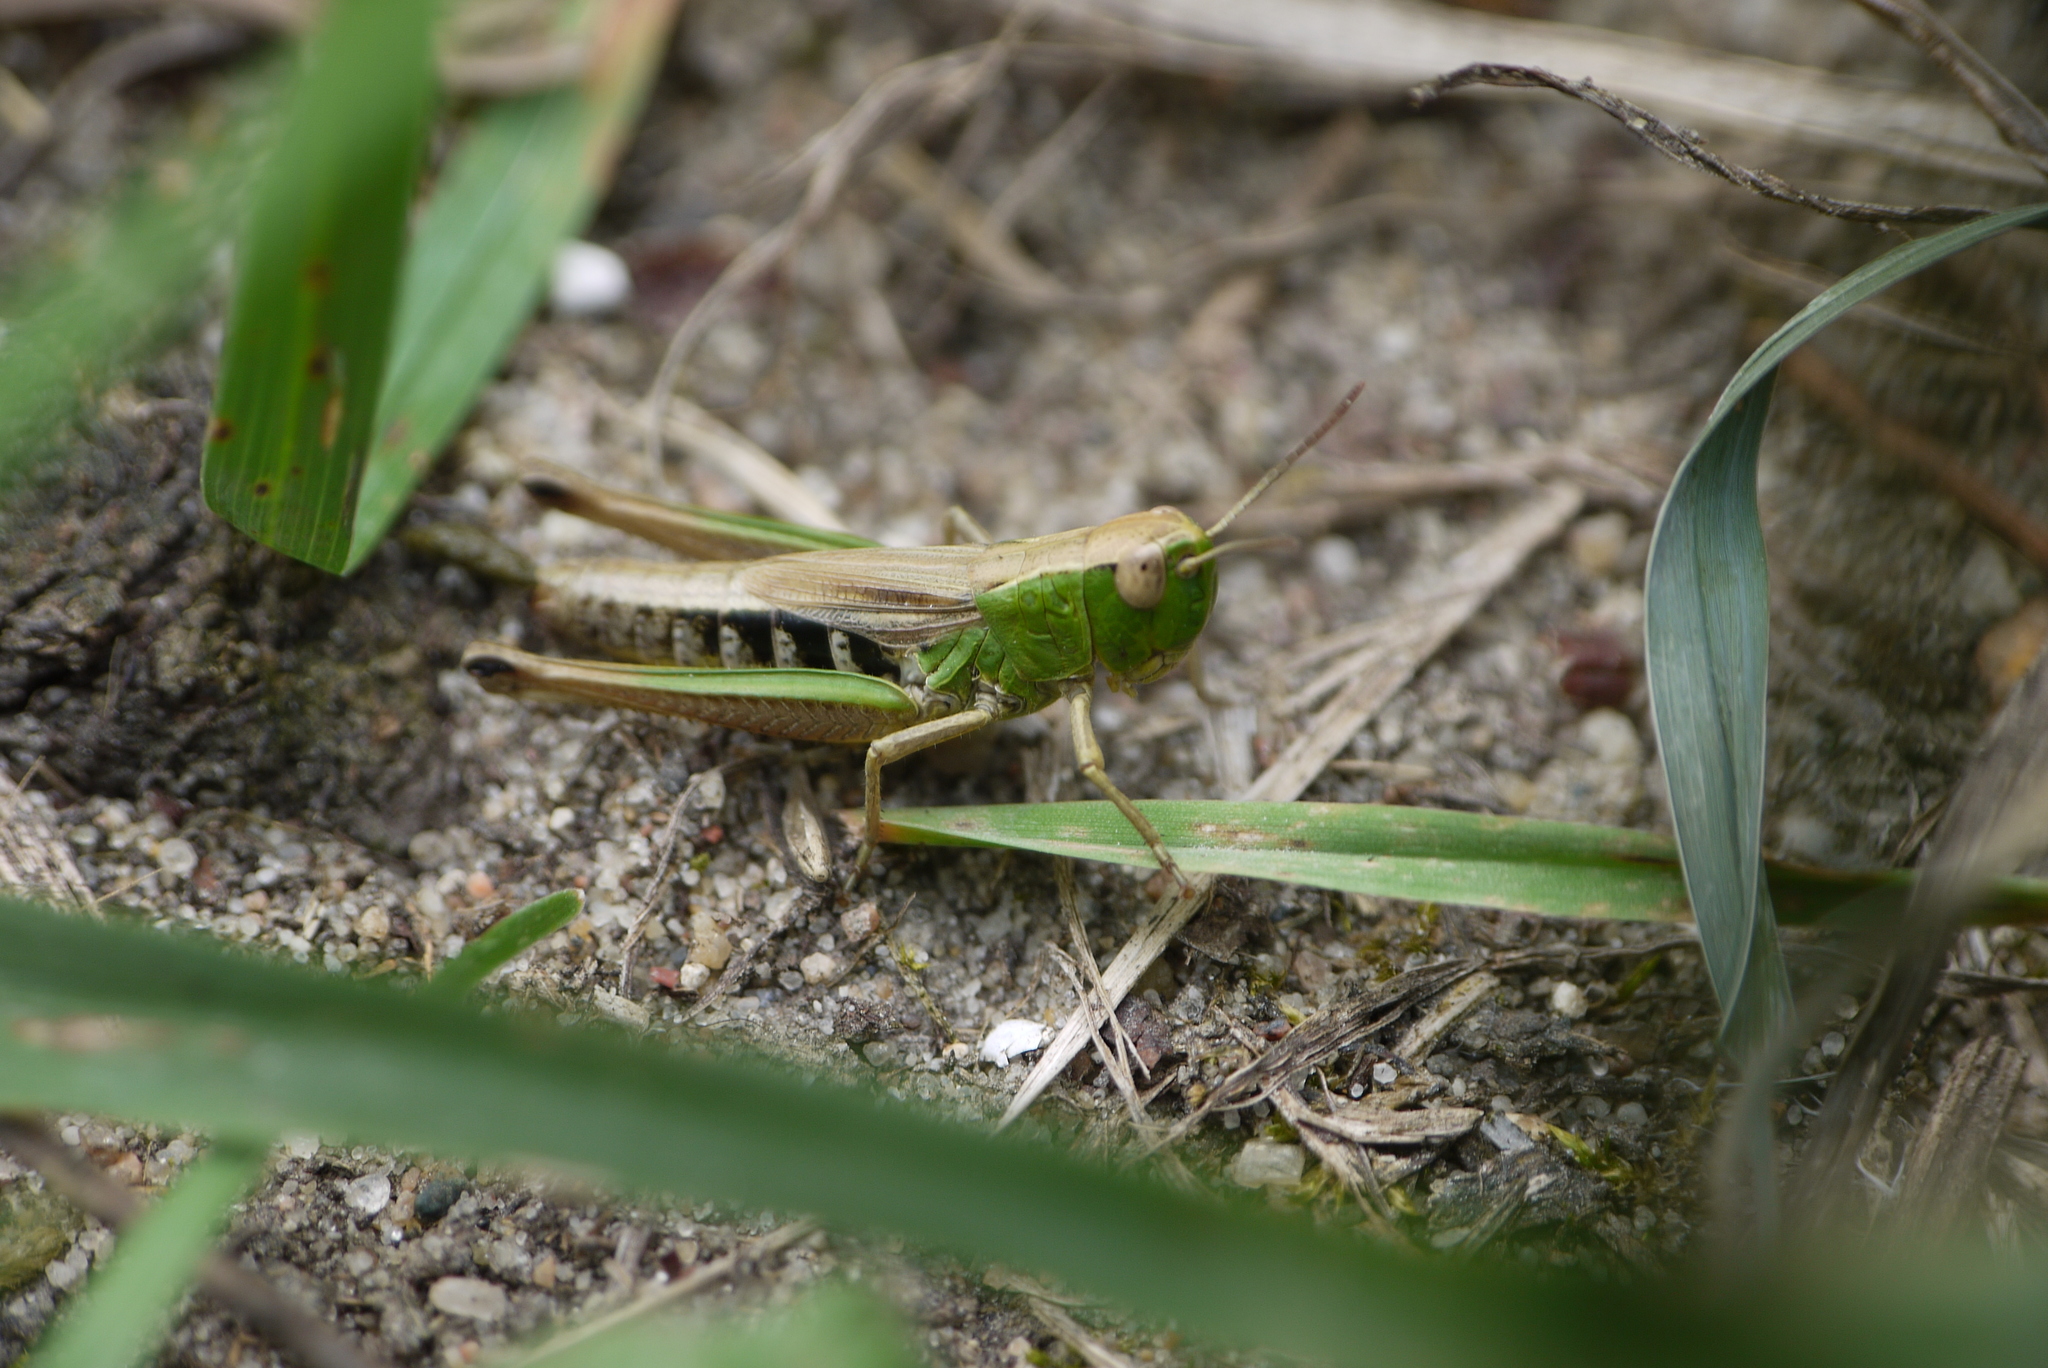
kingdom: Animalia
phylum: Arthropoda
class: Insecta
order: Orthoptera
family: Acrididae
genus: Pseudochorthippus
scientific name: Pseudochorthippus parallelus
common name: Meadow grasshopper
